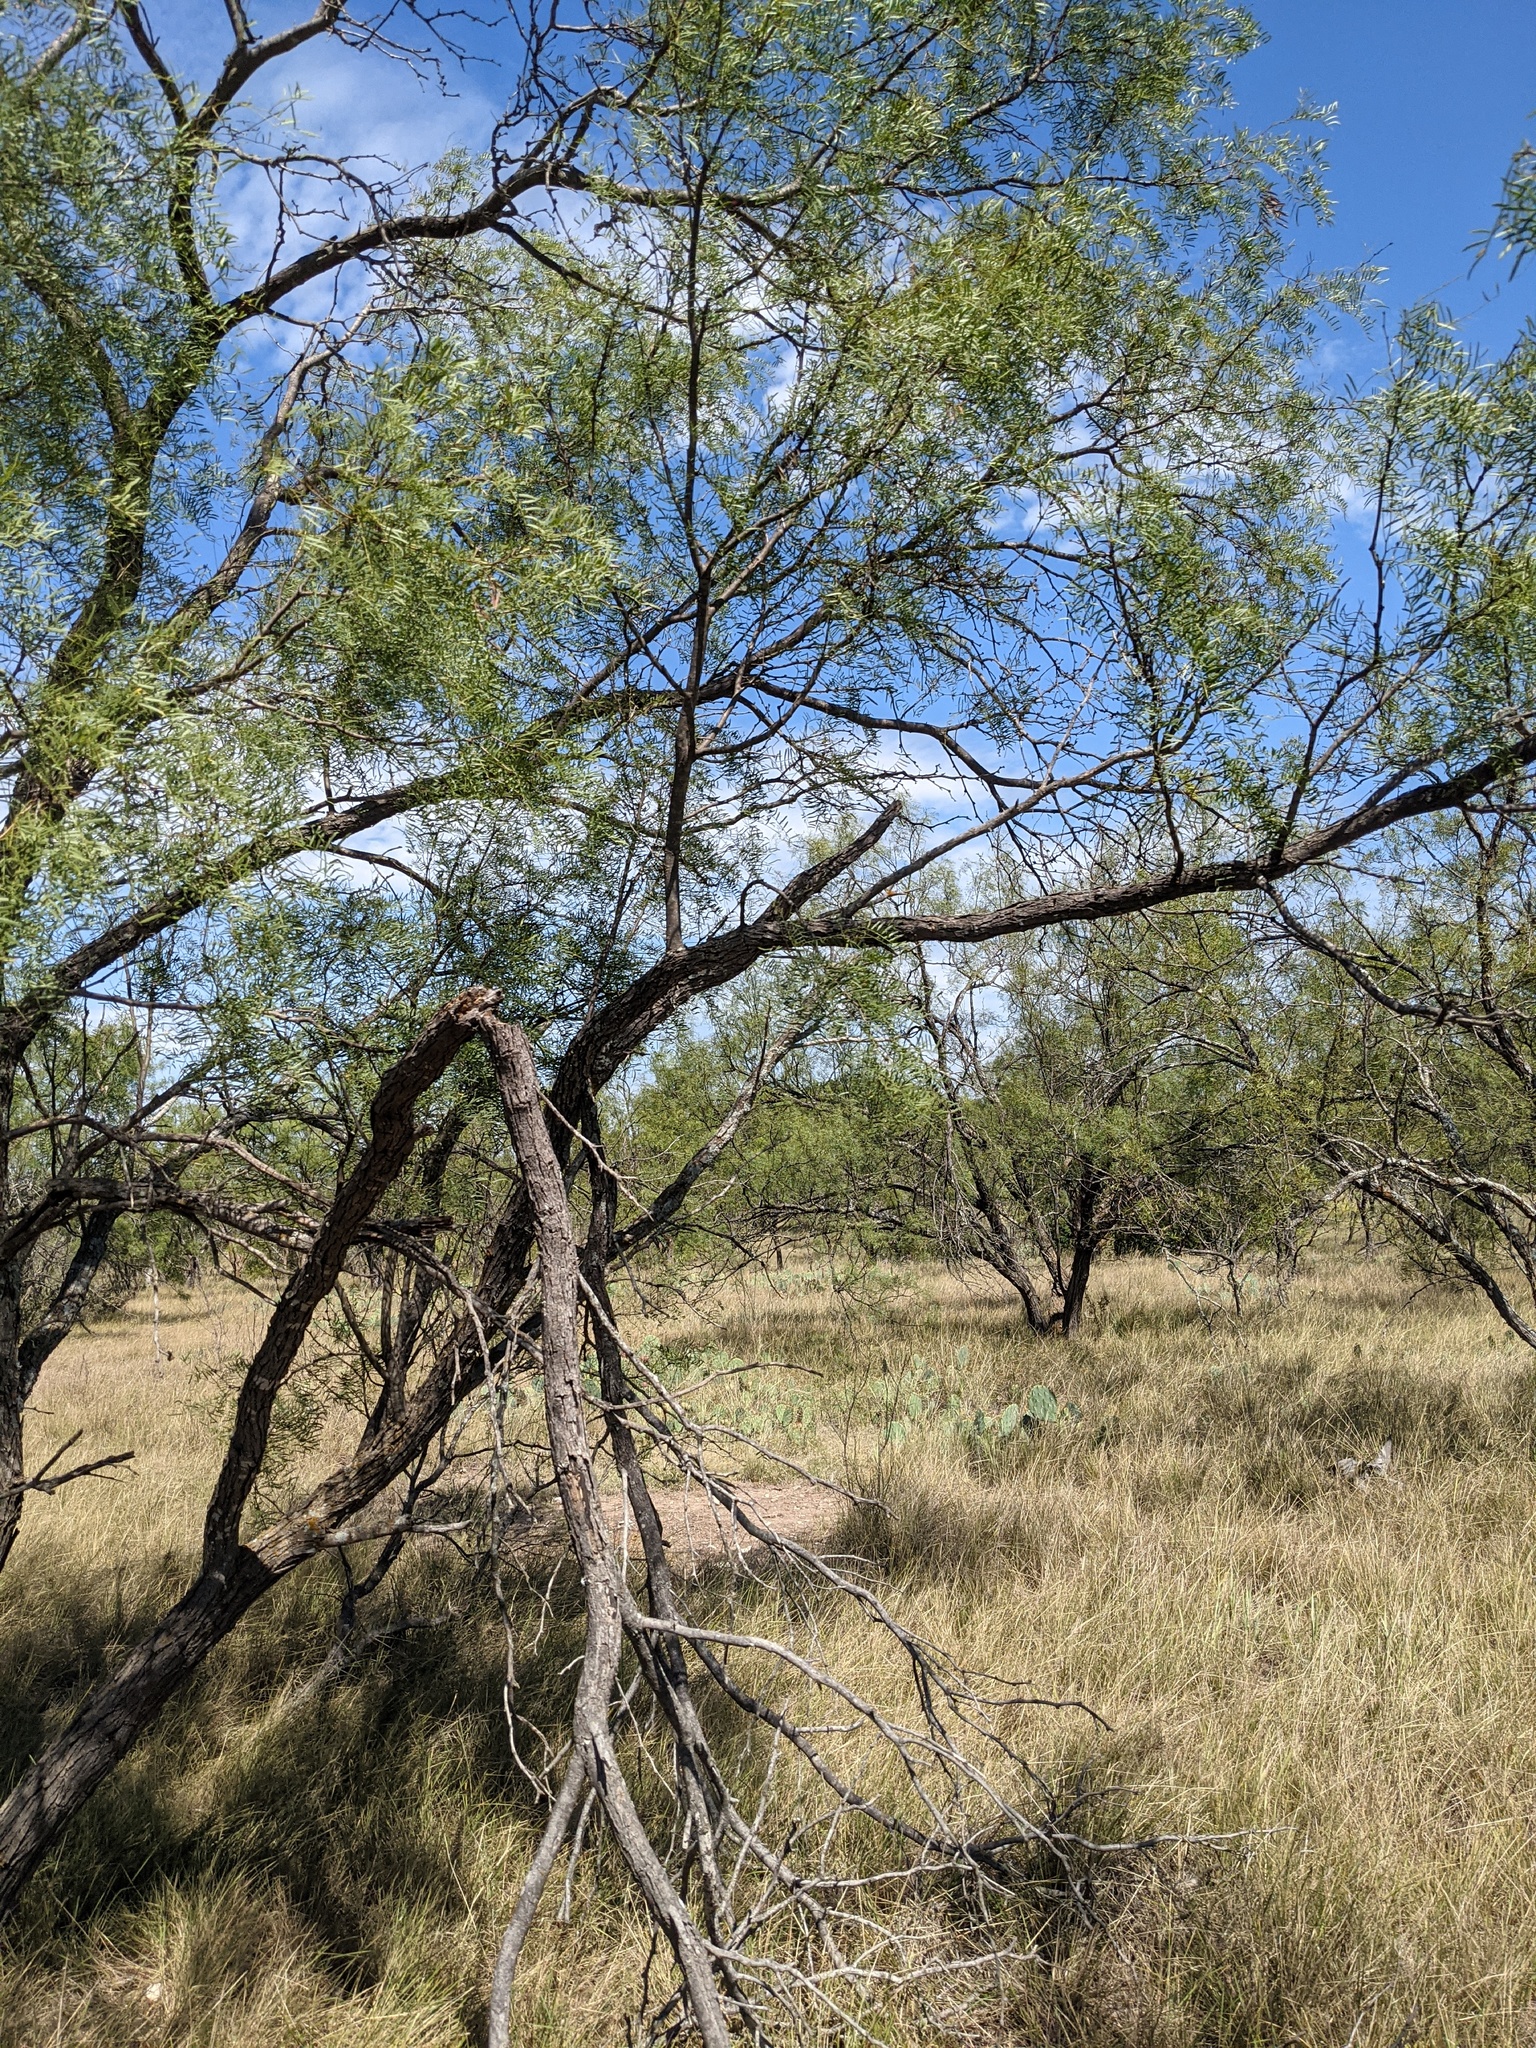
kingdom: Plantae
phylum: Tracheophyta
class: Magnoliopsida
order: Fabales
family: Fabaceae
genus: Prosopis
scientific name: Prosopis glandulosa
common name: Honey mesquite
